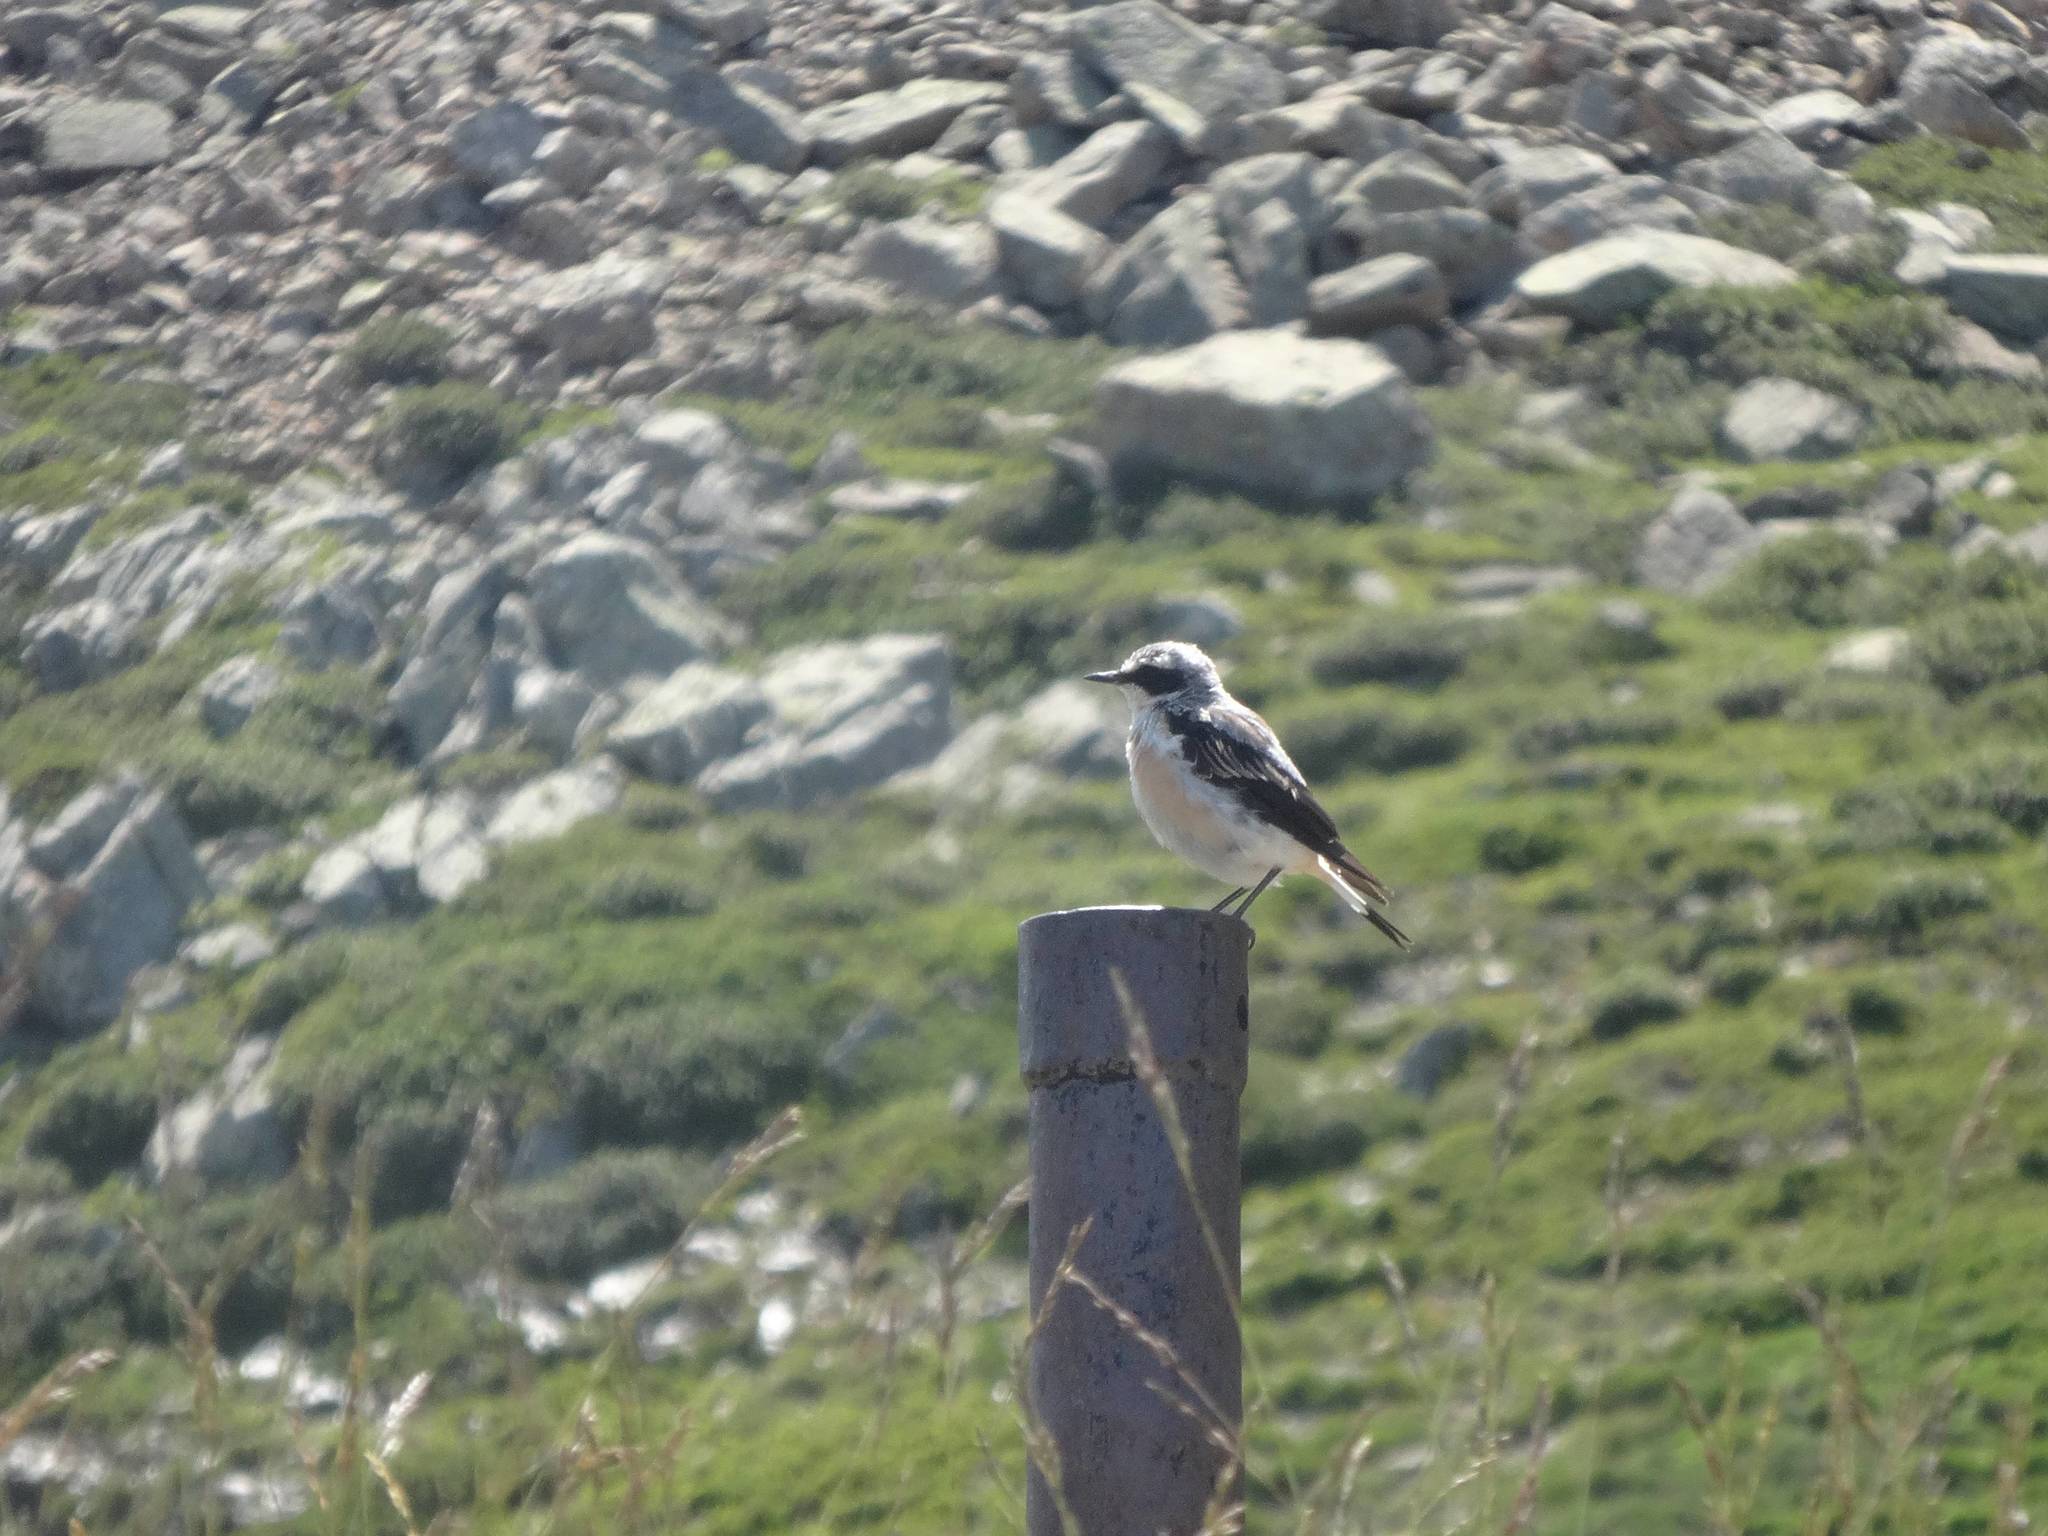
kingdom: Animalia
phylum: Chordata
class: Aves
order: Passeriformes
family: Muscicapidae
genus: Oenanthe
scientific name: Oenanthe oenanthe
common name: Northern wheatear
